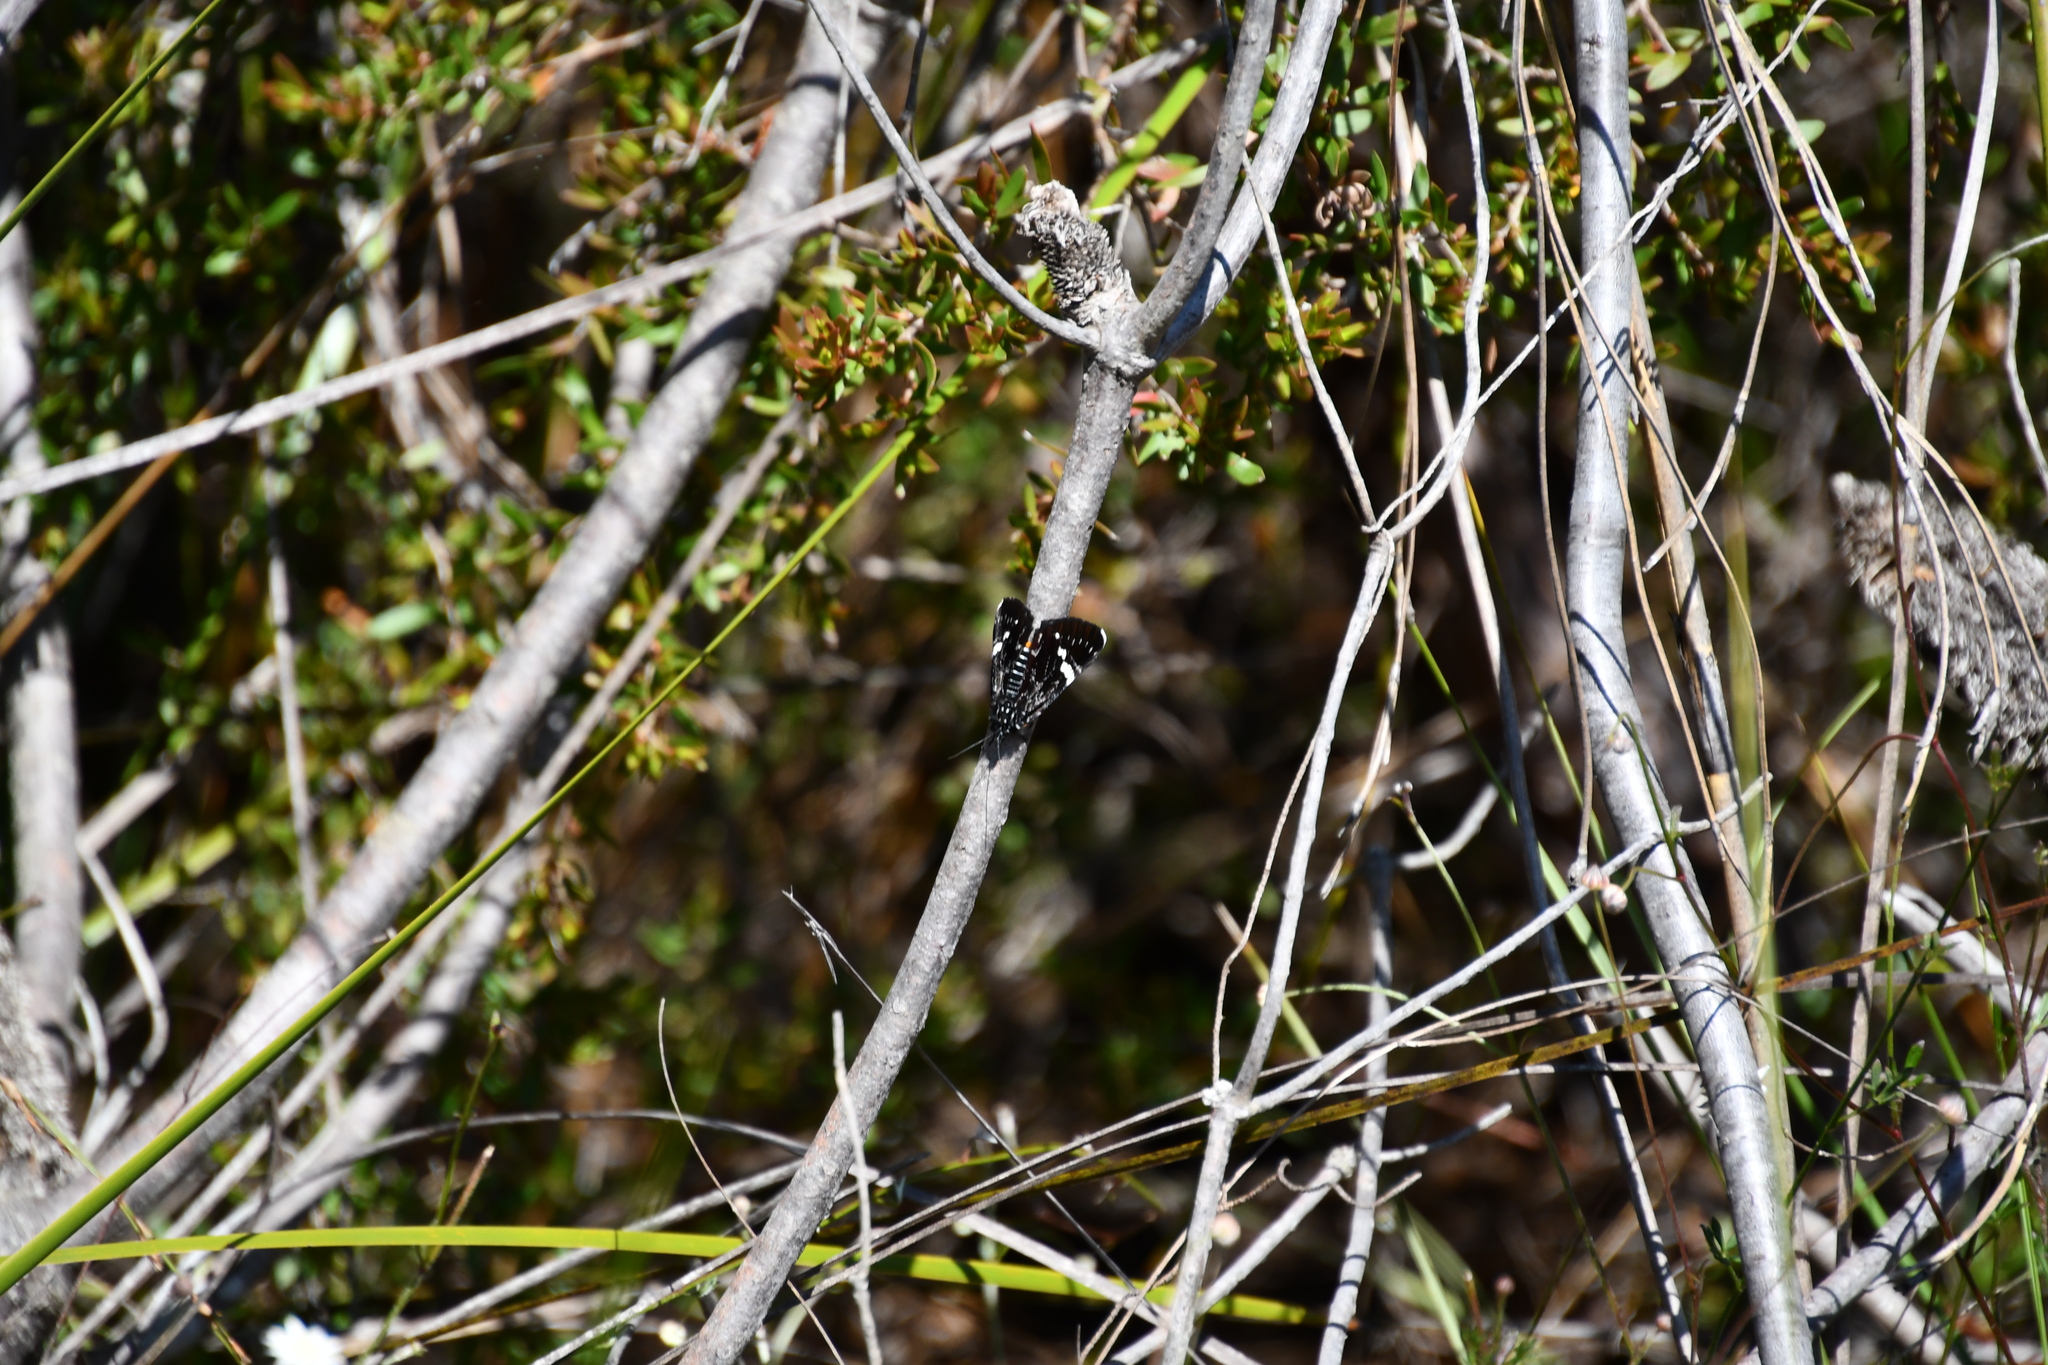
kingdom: Animalia
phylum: Arthropoda
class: Insecta
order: Lepidoptera
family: Noctuidae
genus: Platagarista
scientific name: Platagarista macleayi
